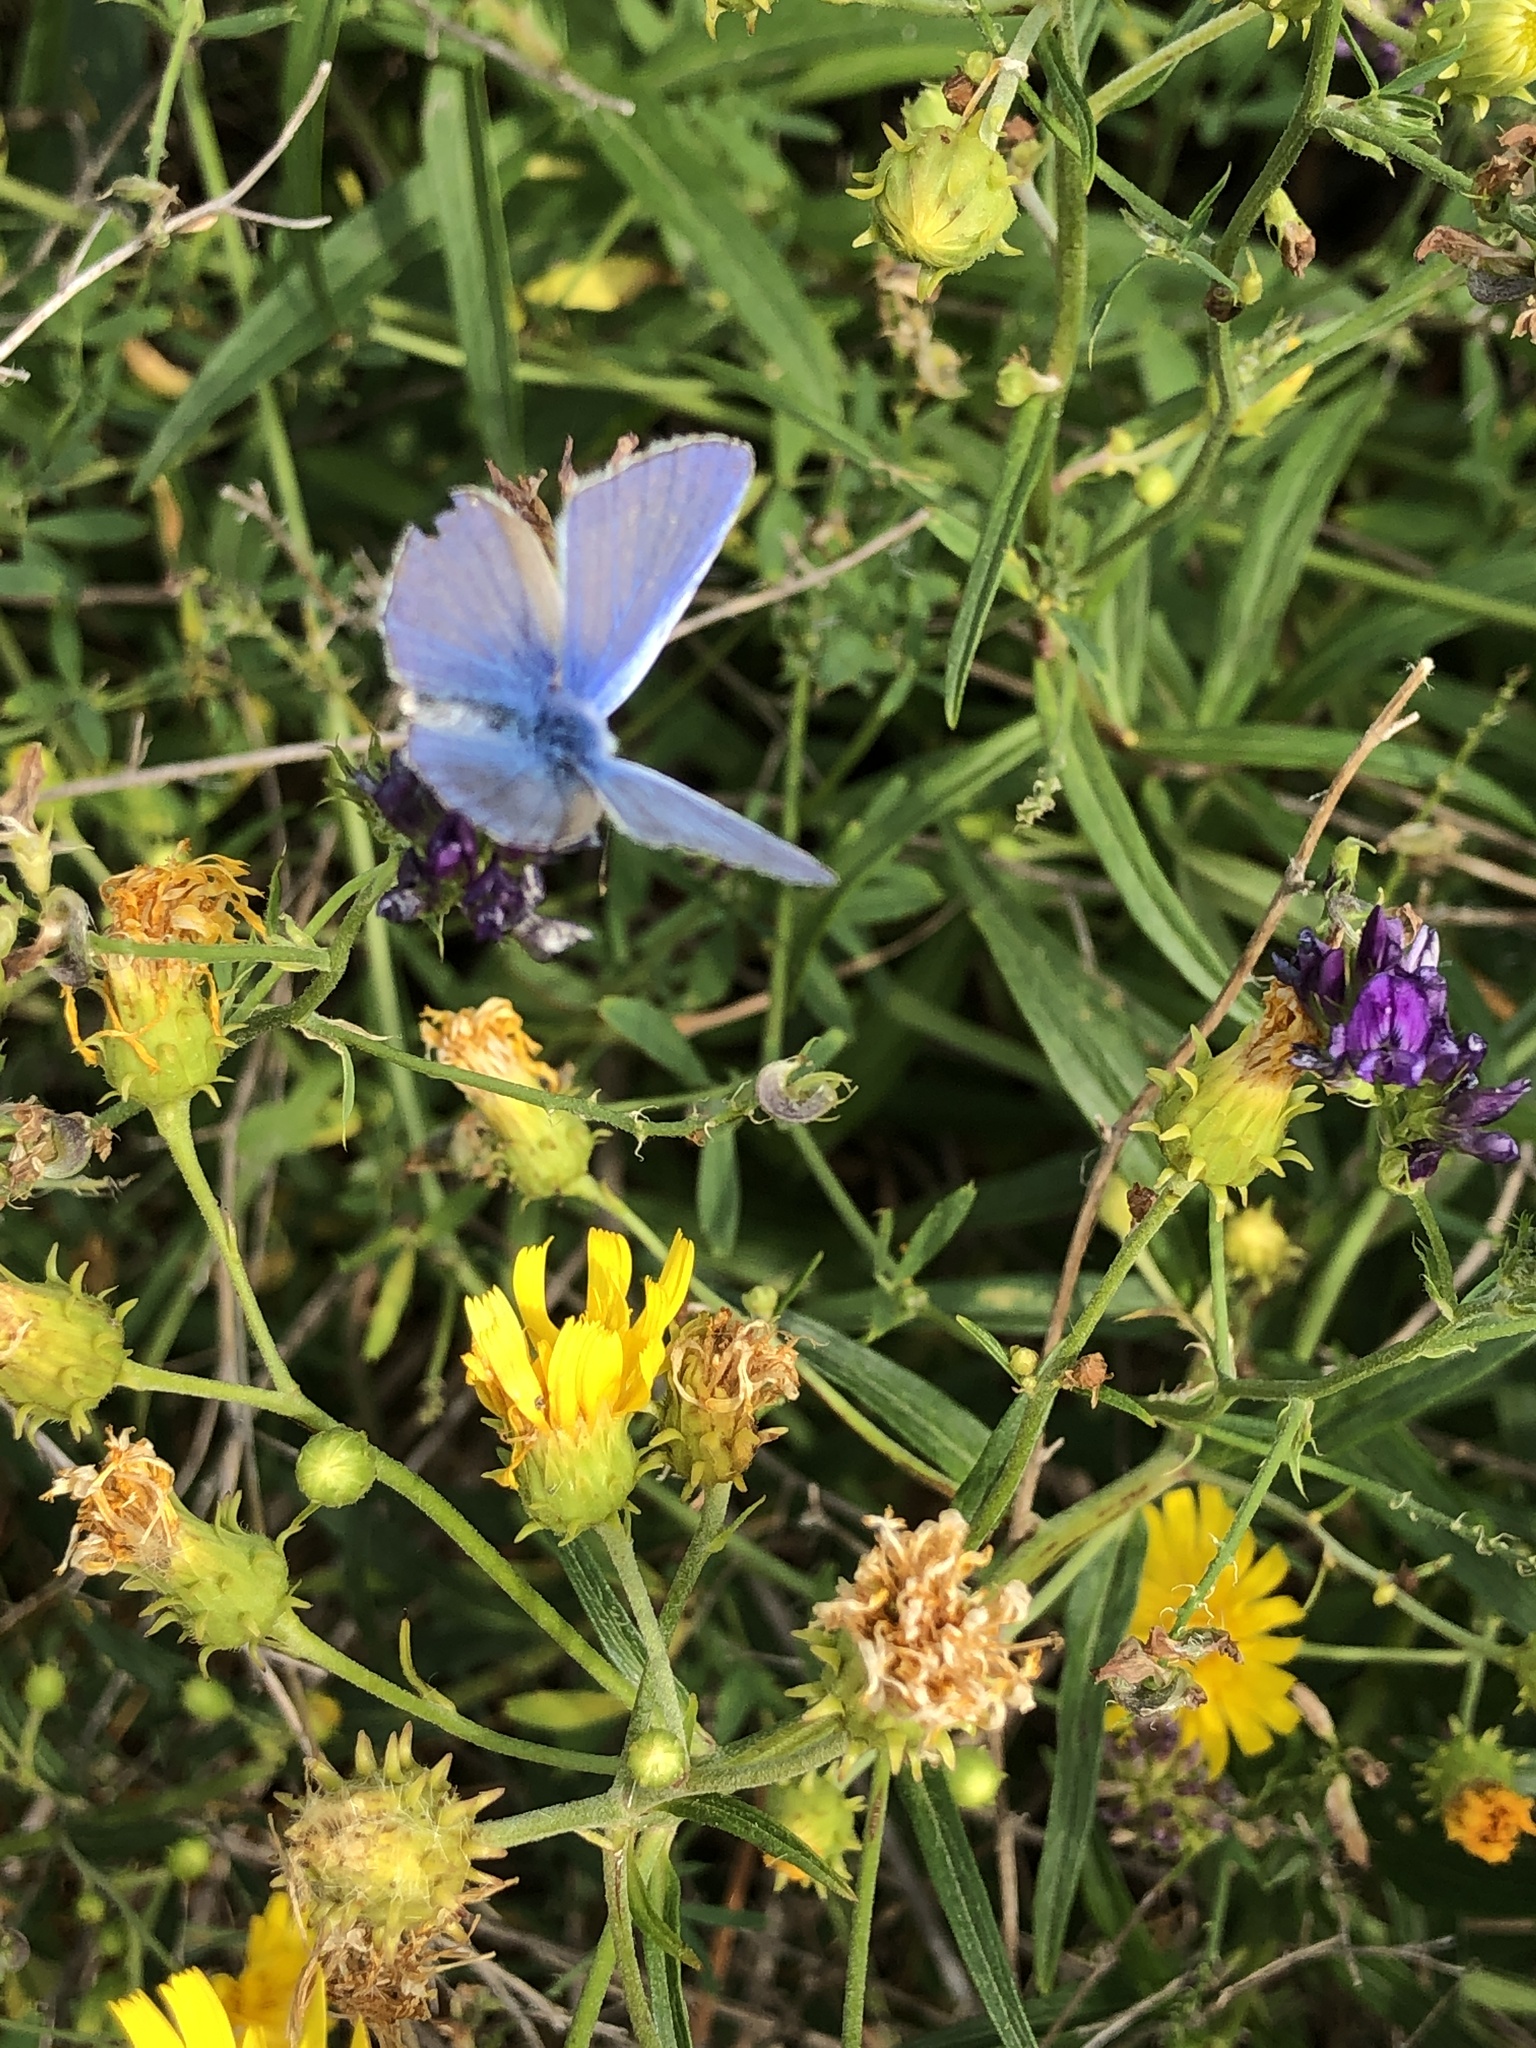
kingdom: Animalia
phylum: Arthropoda
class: Insecta
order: Lepidoptera
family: Lycaenidae
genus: Polyommatus
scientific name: Polyommatus icarus
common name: Common blue
